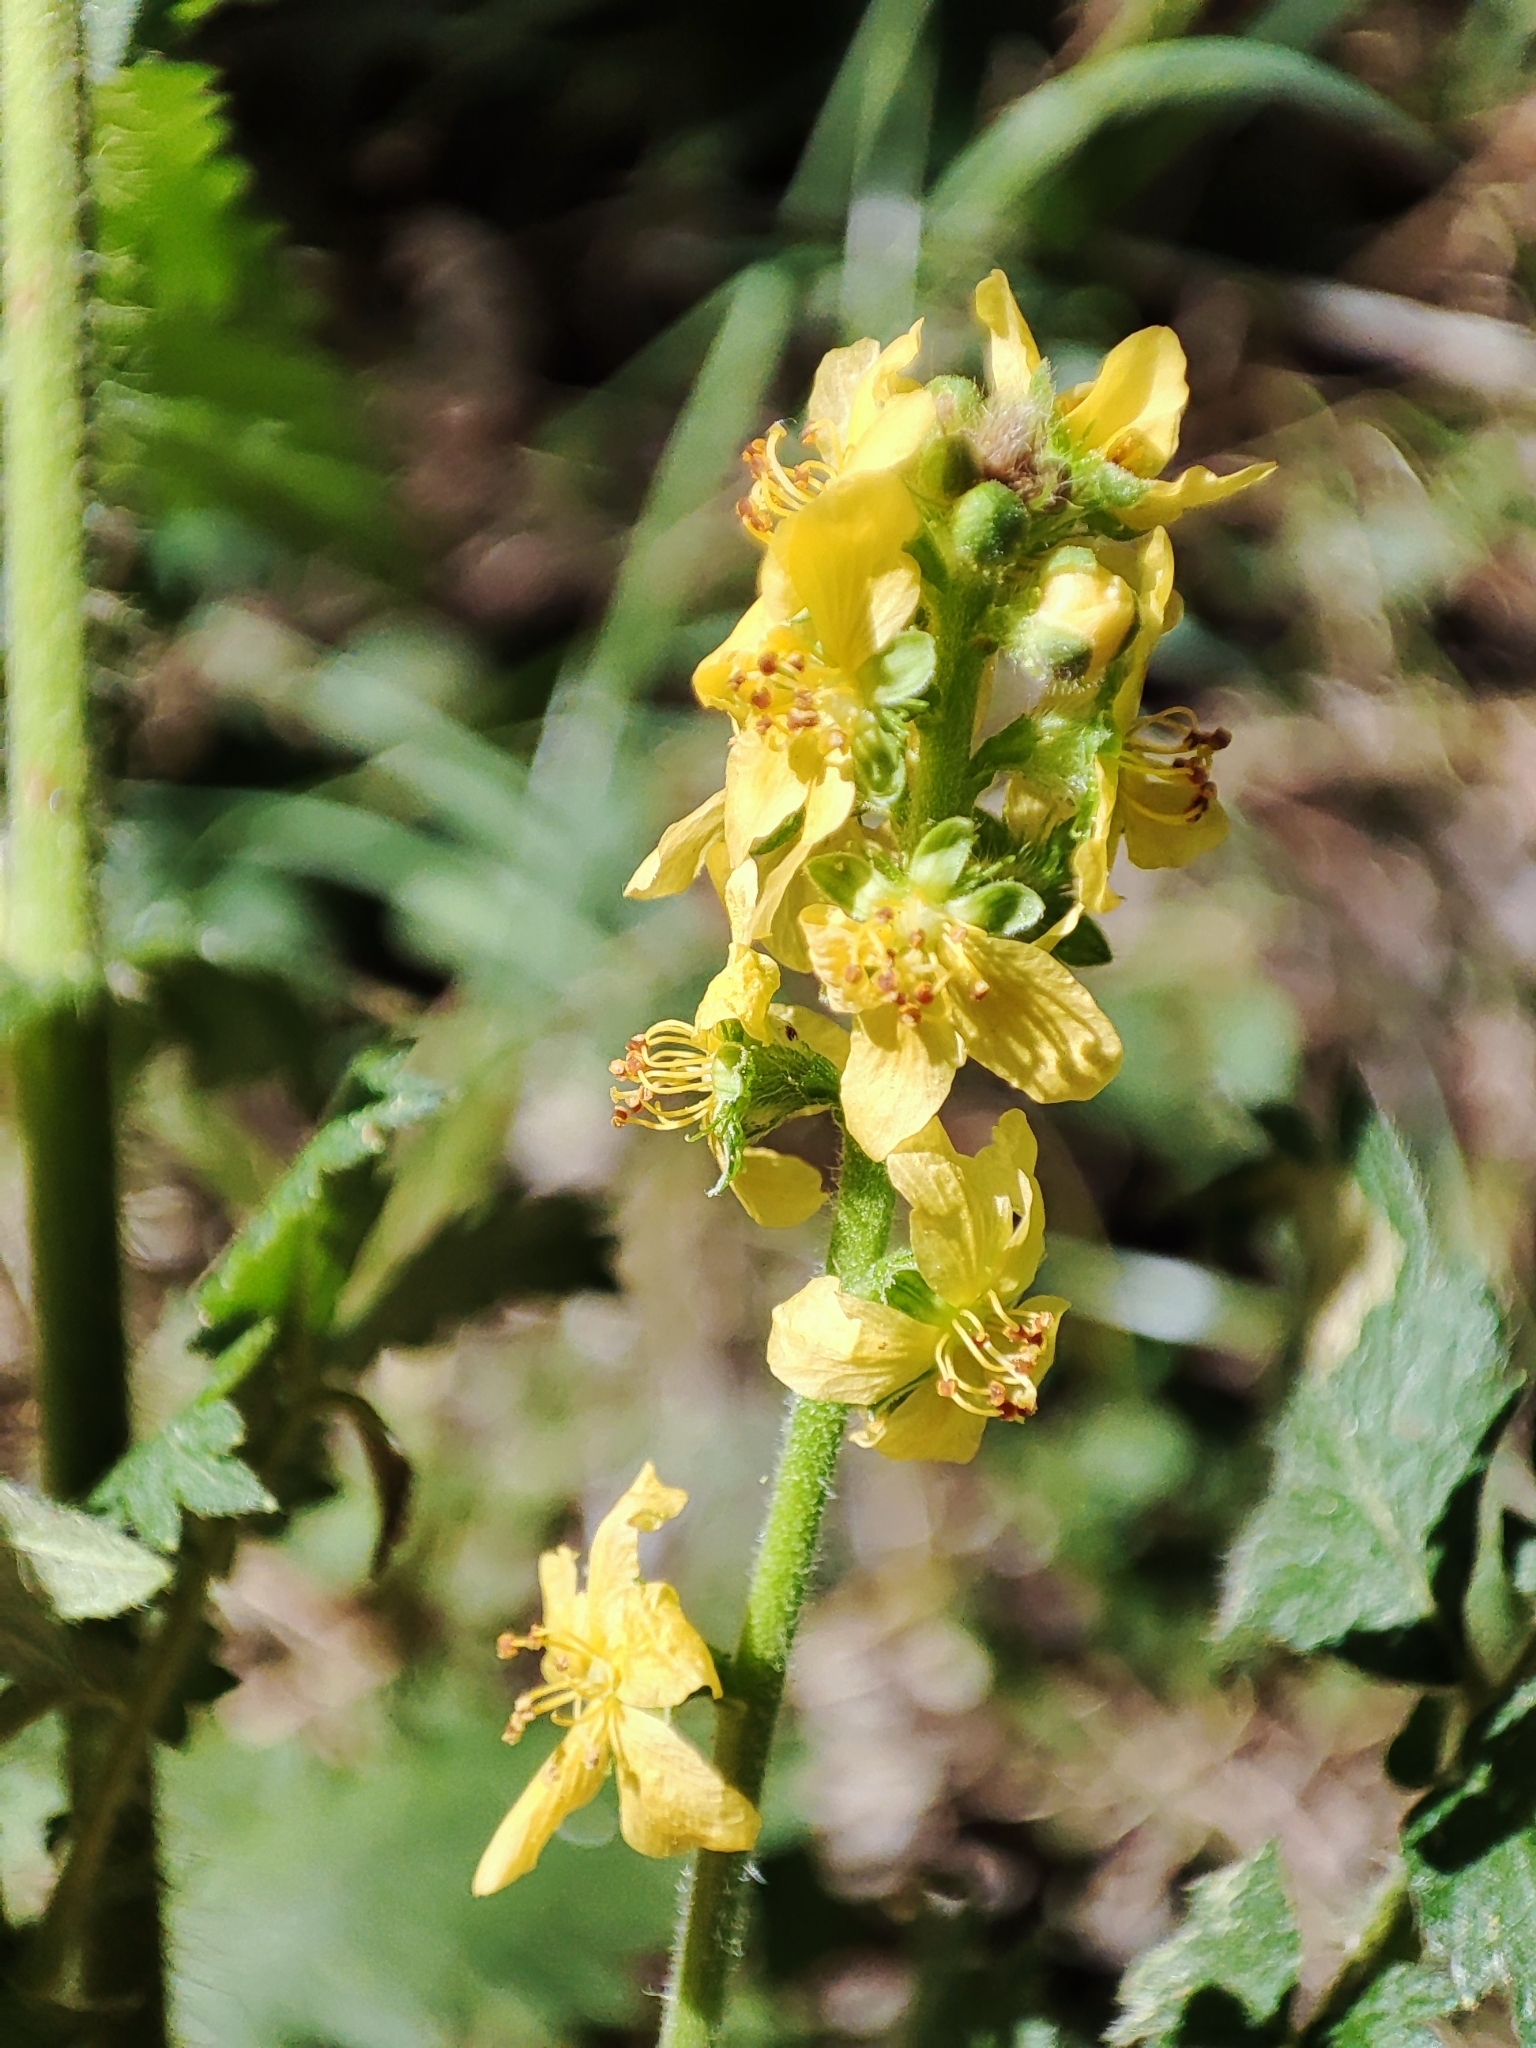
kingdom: Plantae
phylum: Tracheophyta
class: Magnoliopsida
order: Rosales
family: Rosaceae
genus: Agrimonia
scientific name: Agrimonia eupatoria
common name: Agrimony
